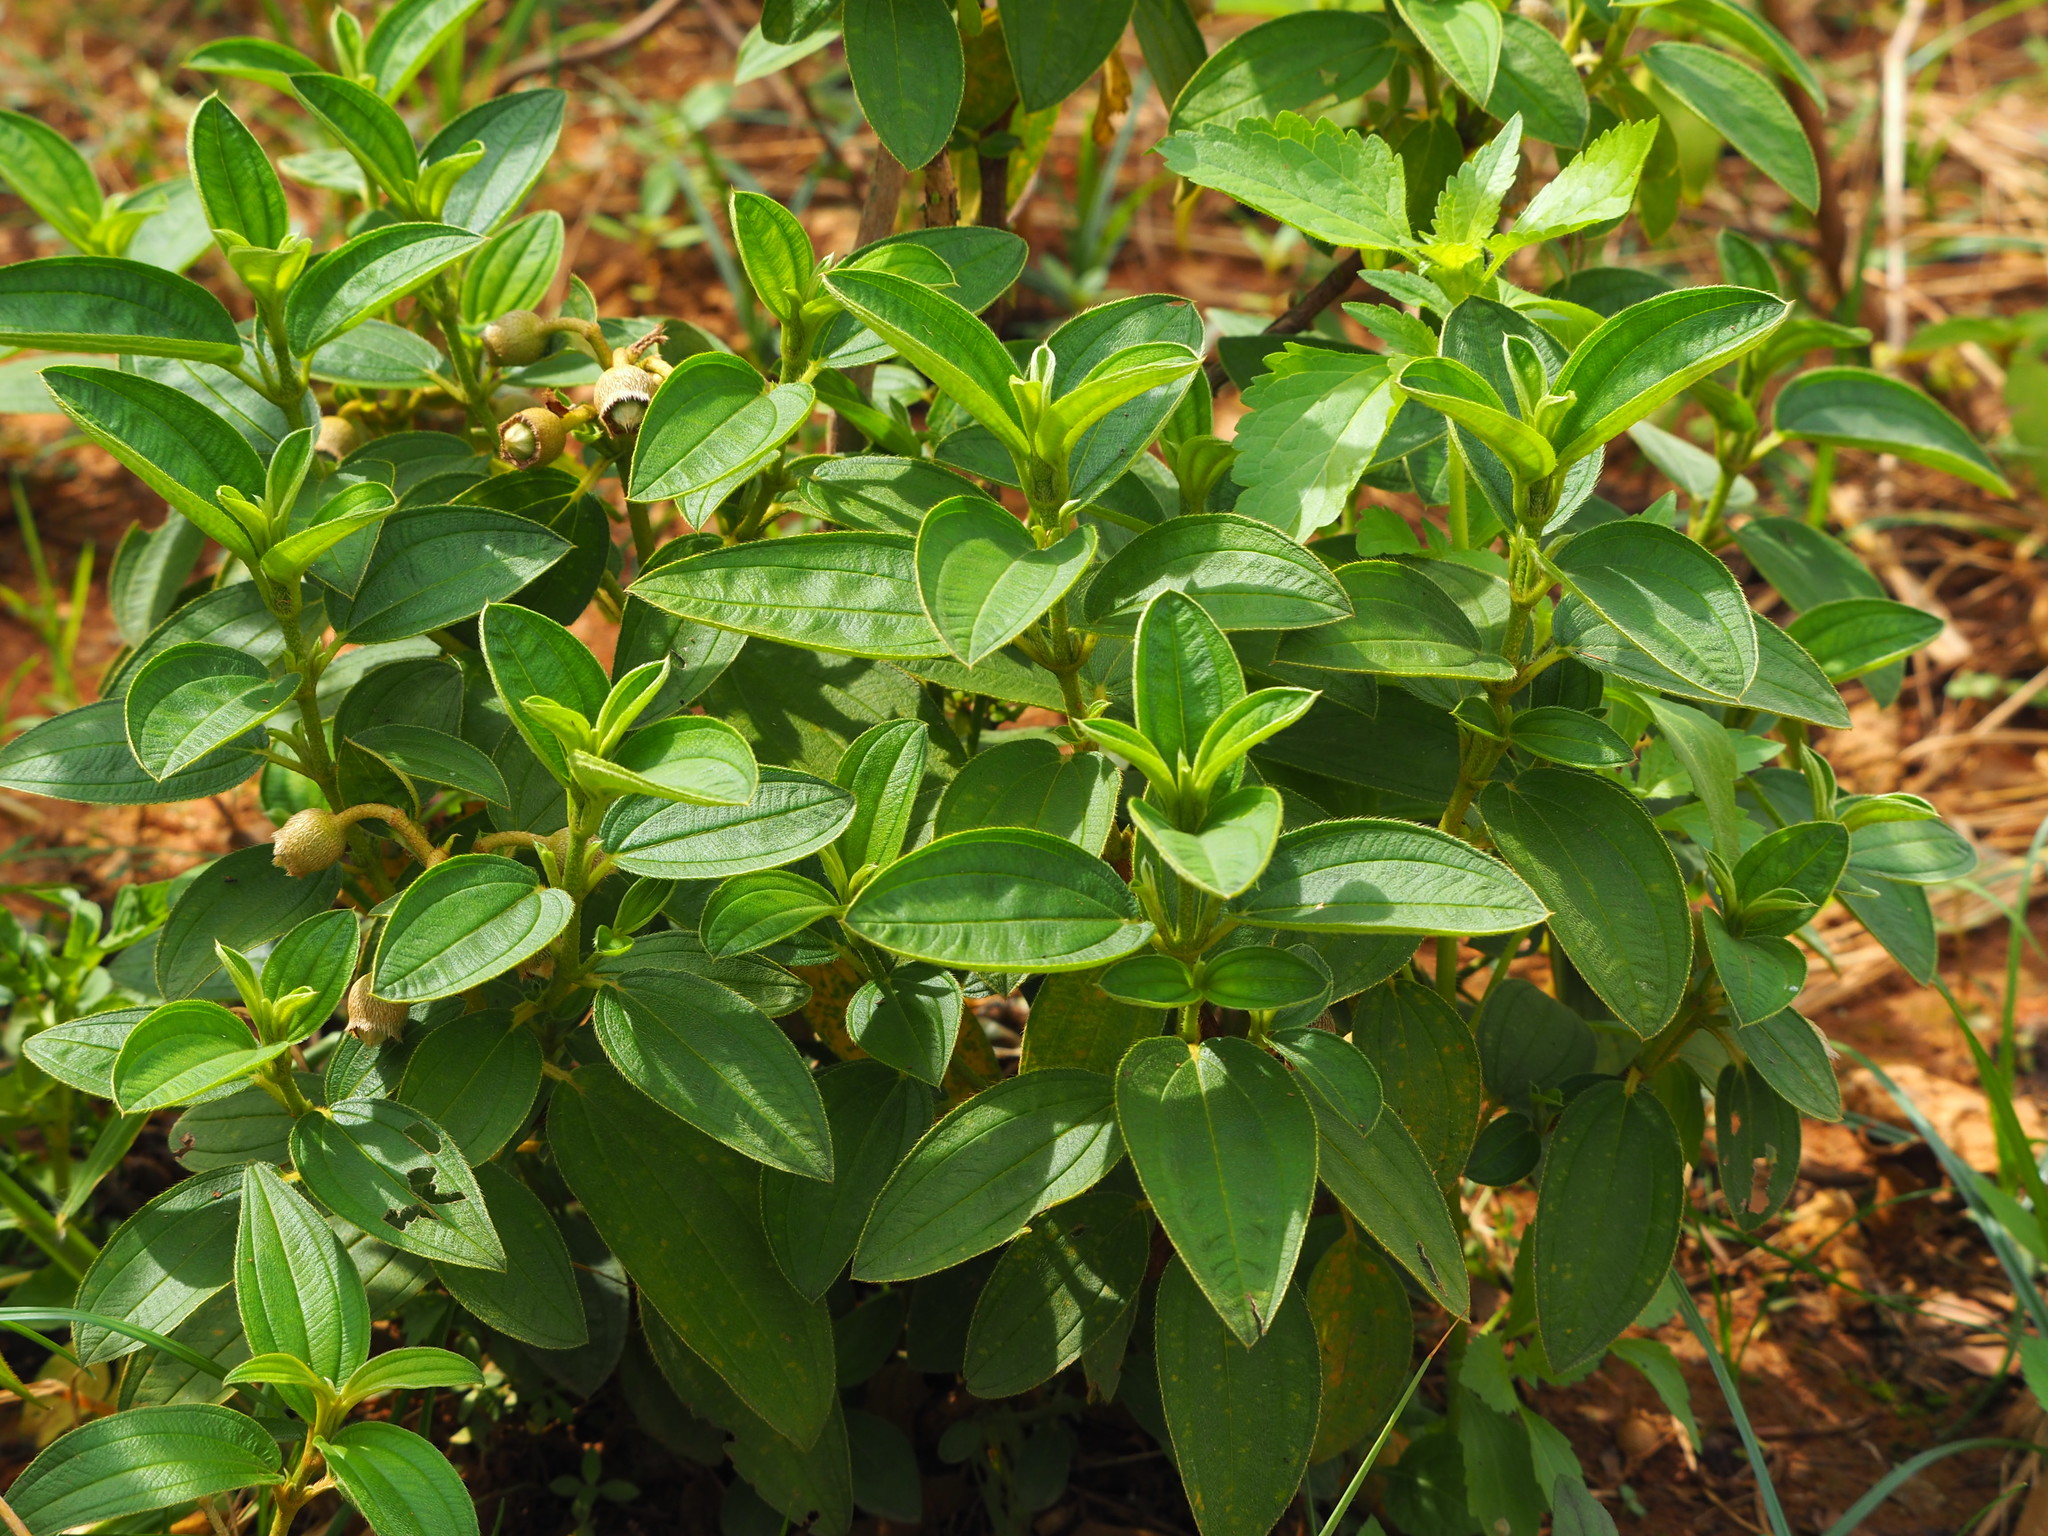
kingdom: Plantae
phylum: Tracheophyta
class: Magnoliopsida
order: Myrtales
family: Melastomataceae
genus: Melastoma
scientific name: Melastoma malabathricum
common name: Indian-rhododendron
